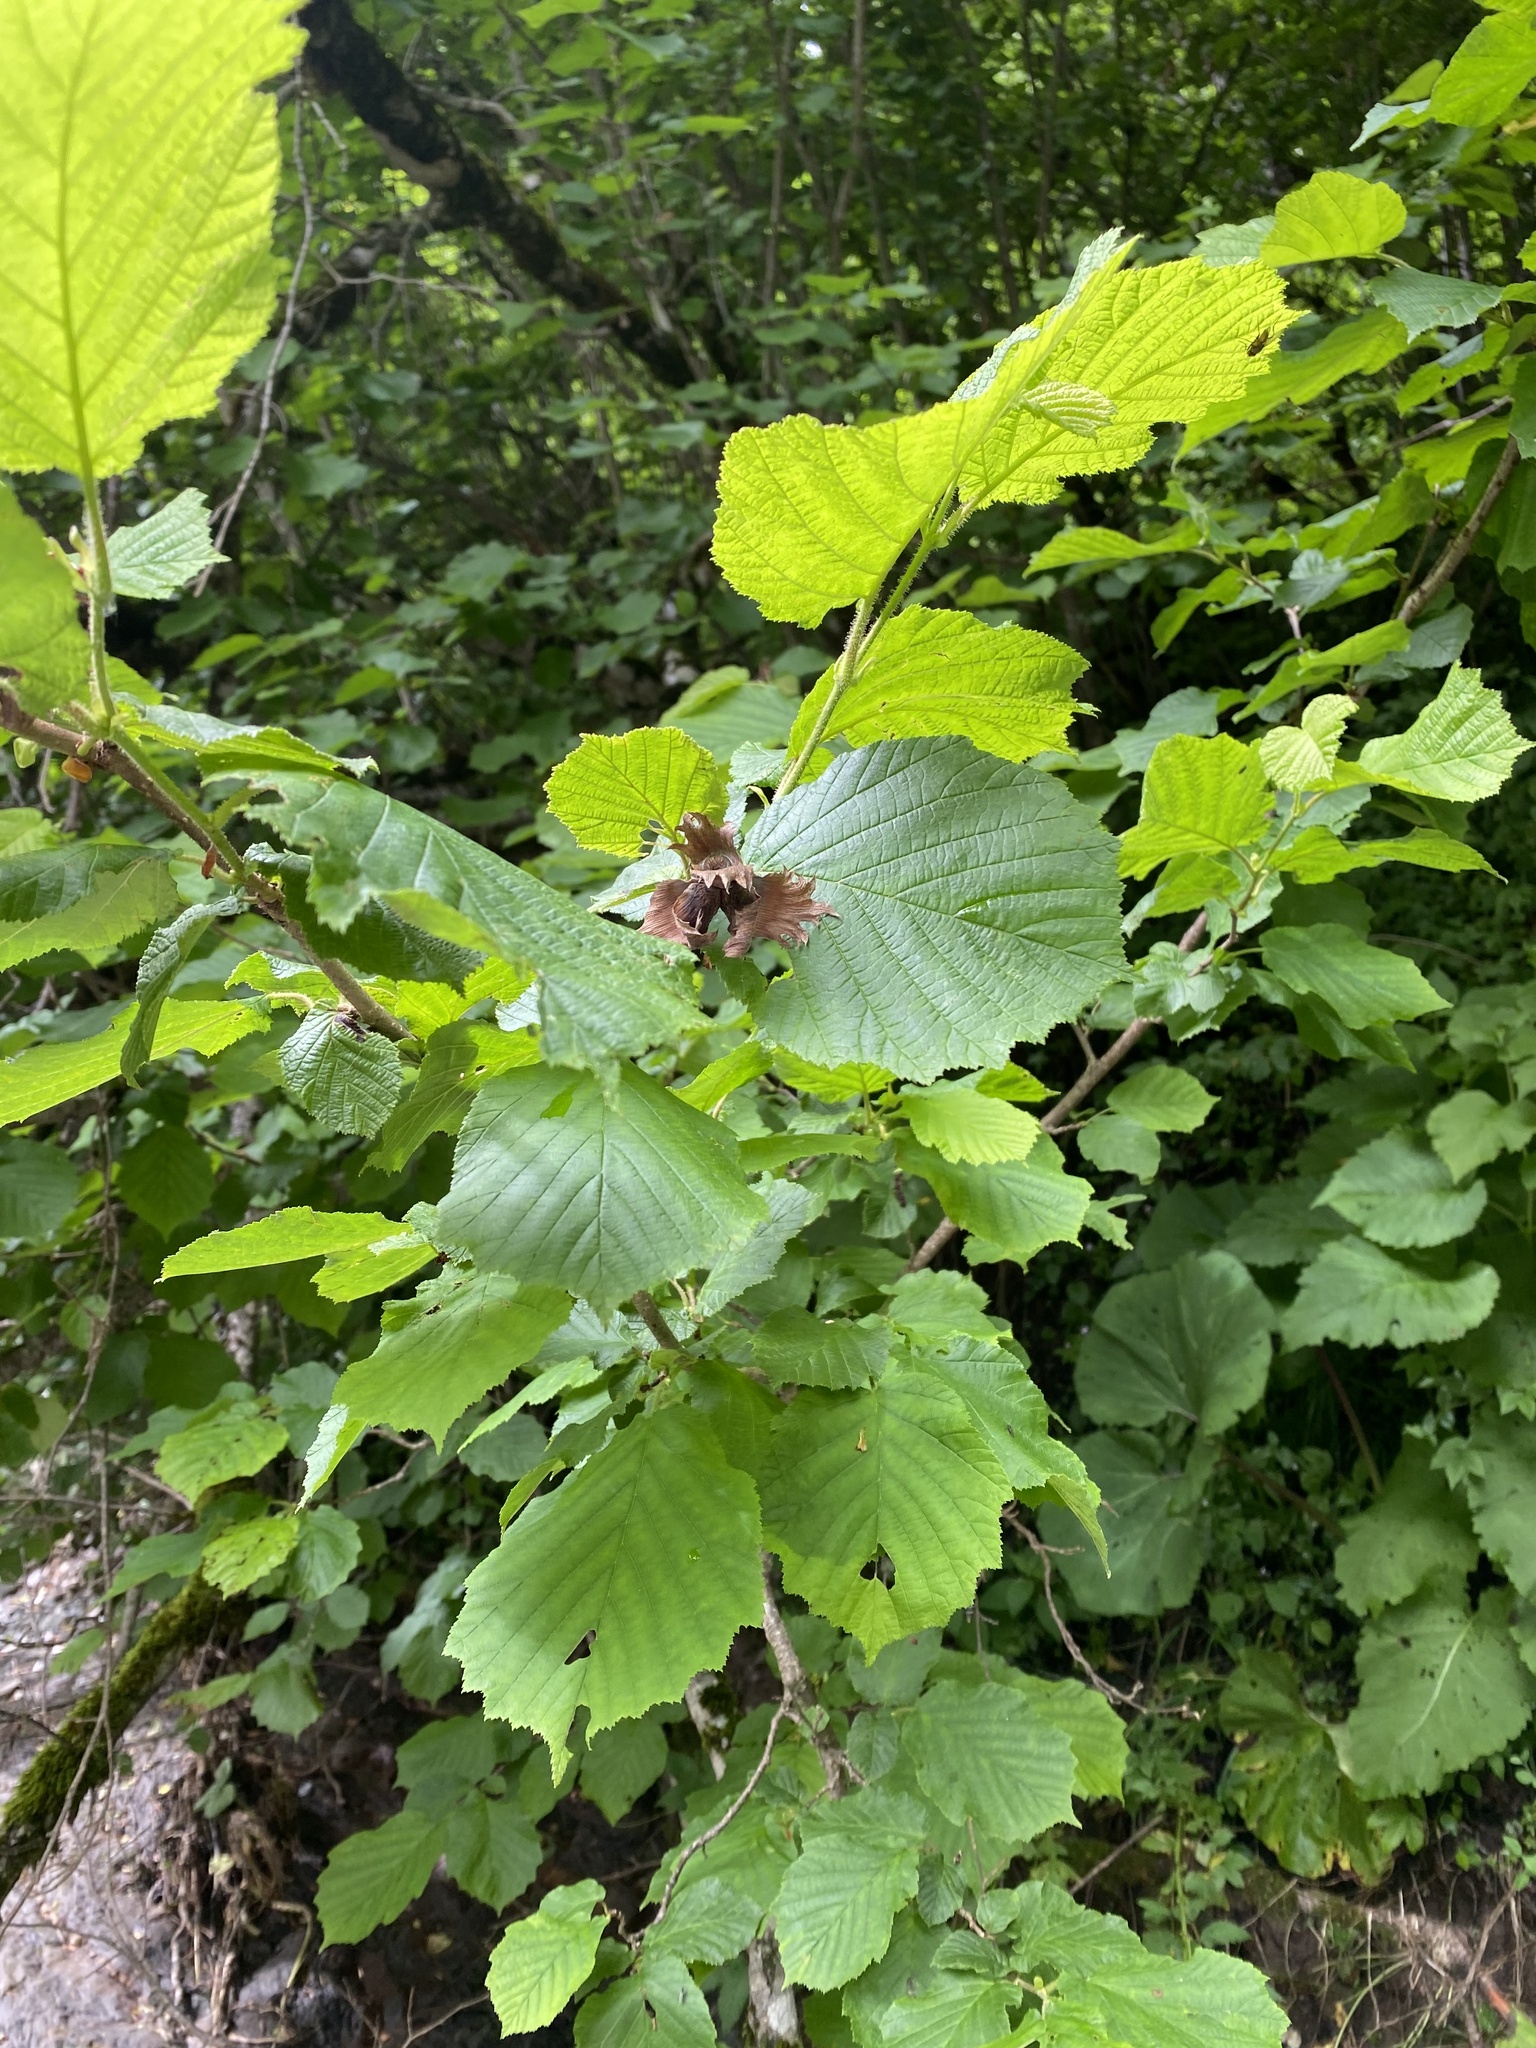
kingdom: Plantae
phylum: Tracheophyta
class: Magnoliopsida
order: Fagales
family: Betulaceae
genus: Corylus
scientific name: Corylus avellana
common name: European hazel
